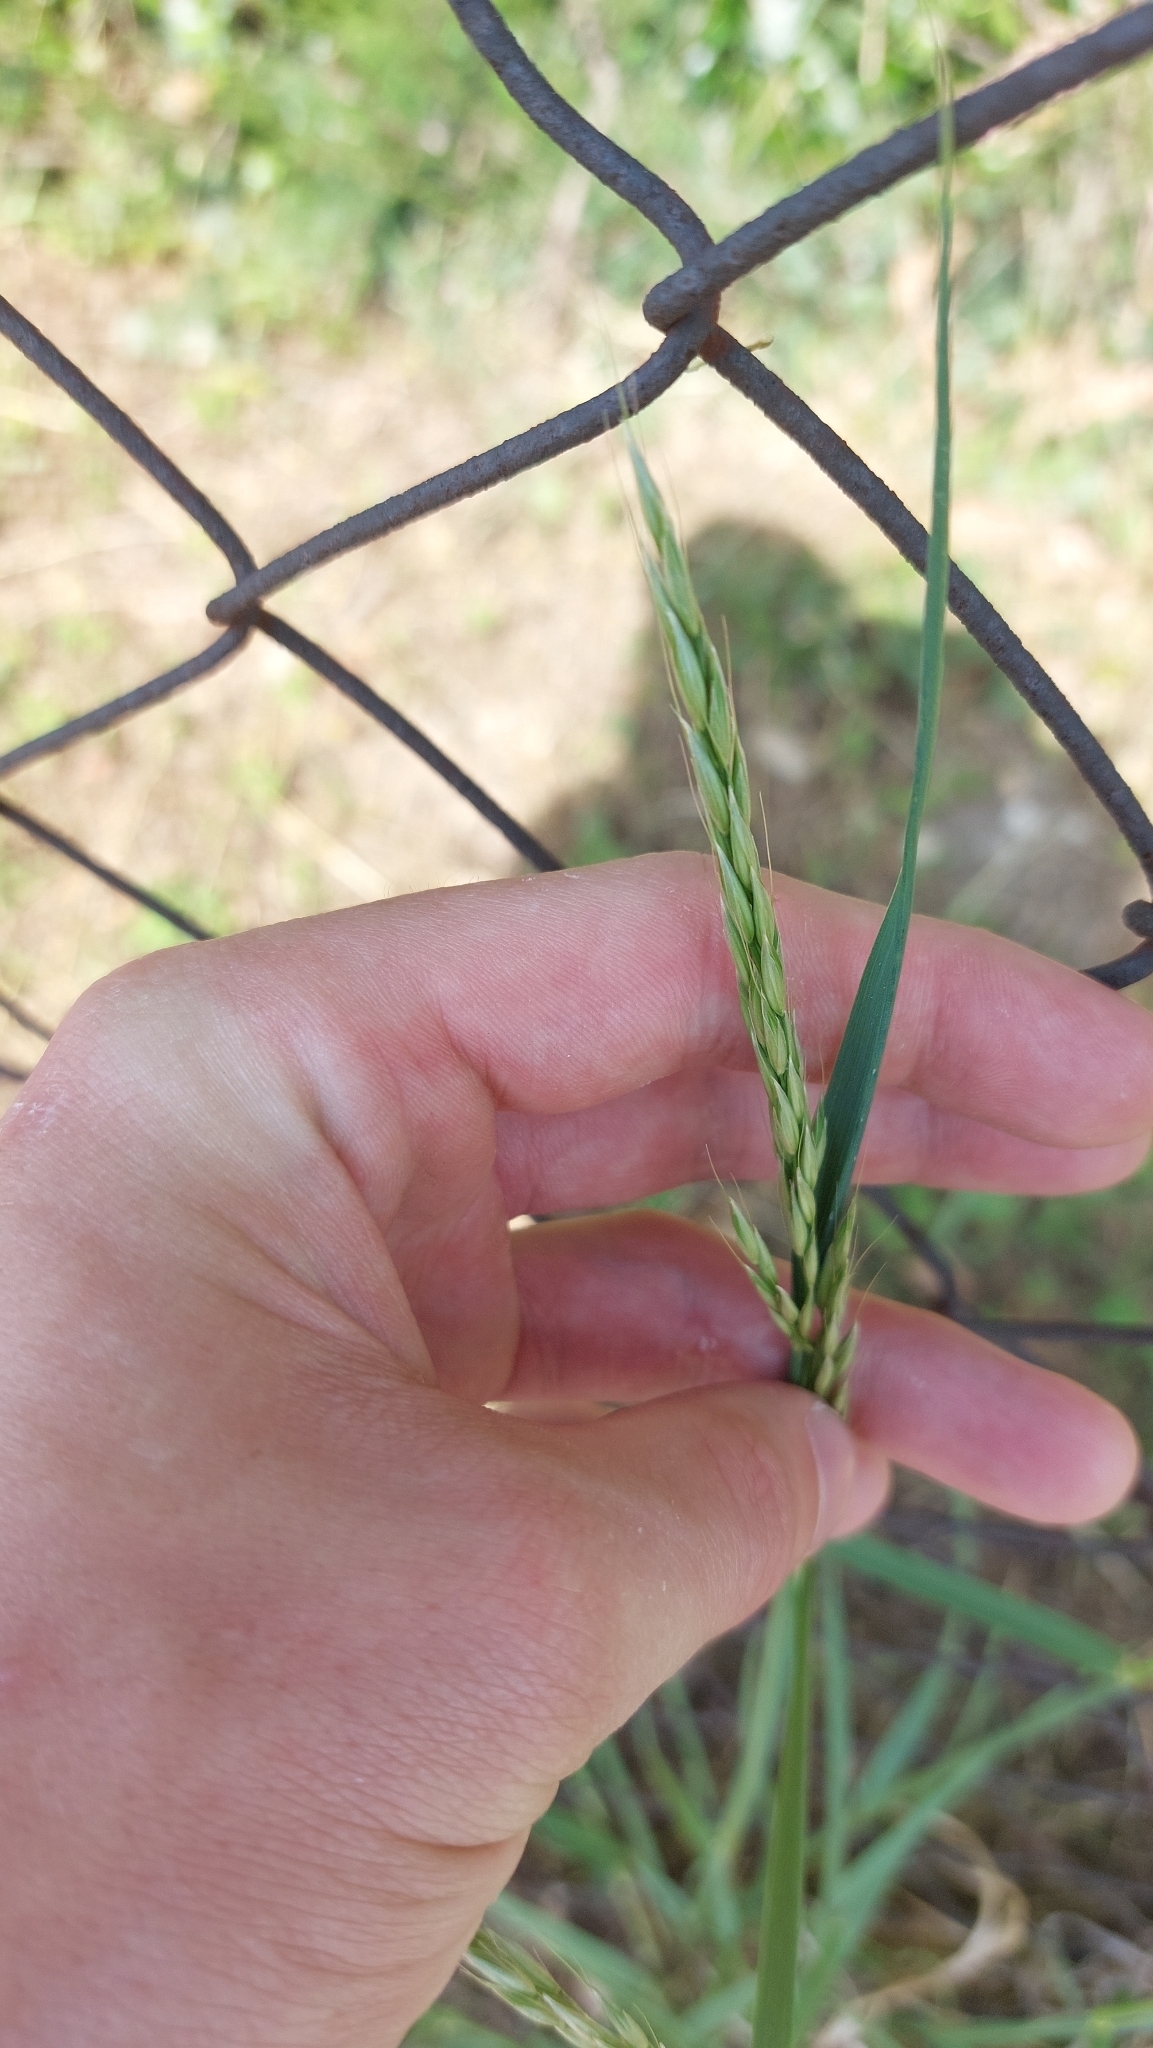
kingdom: Plantae
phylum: Tracheophyta
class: Liliopsida
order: Poales
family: Poaceae
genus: Arrhenatherum
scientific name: Arrhenatherum elatius
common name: Tall oatgrass
